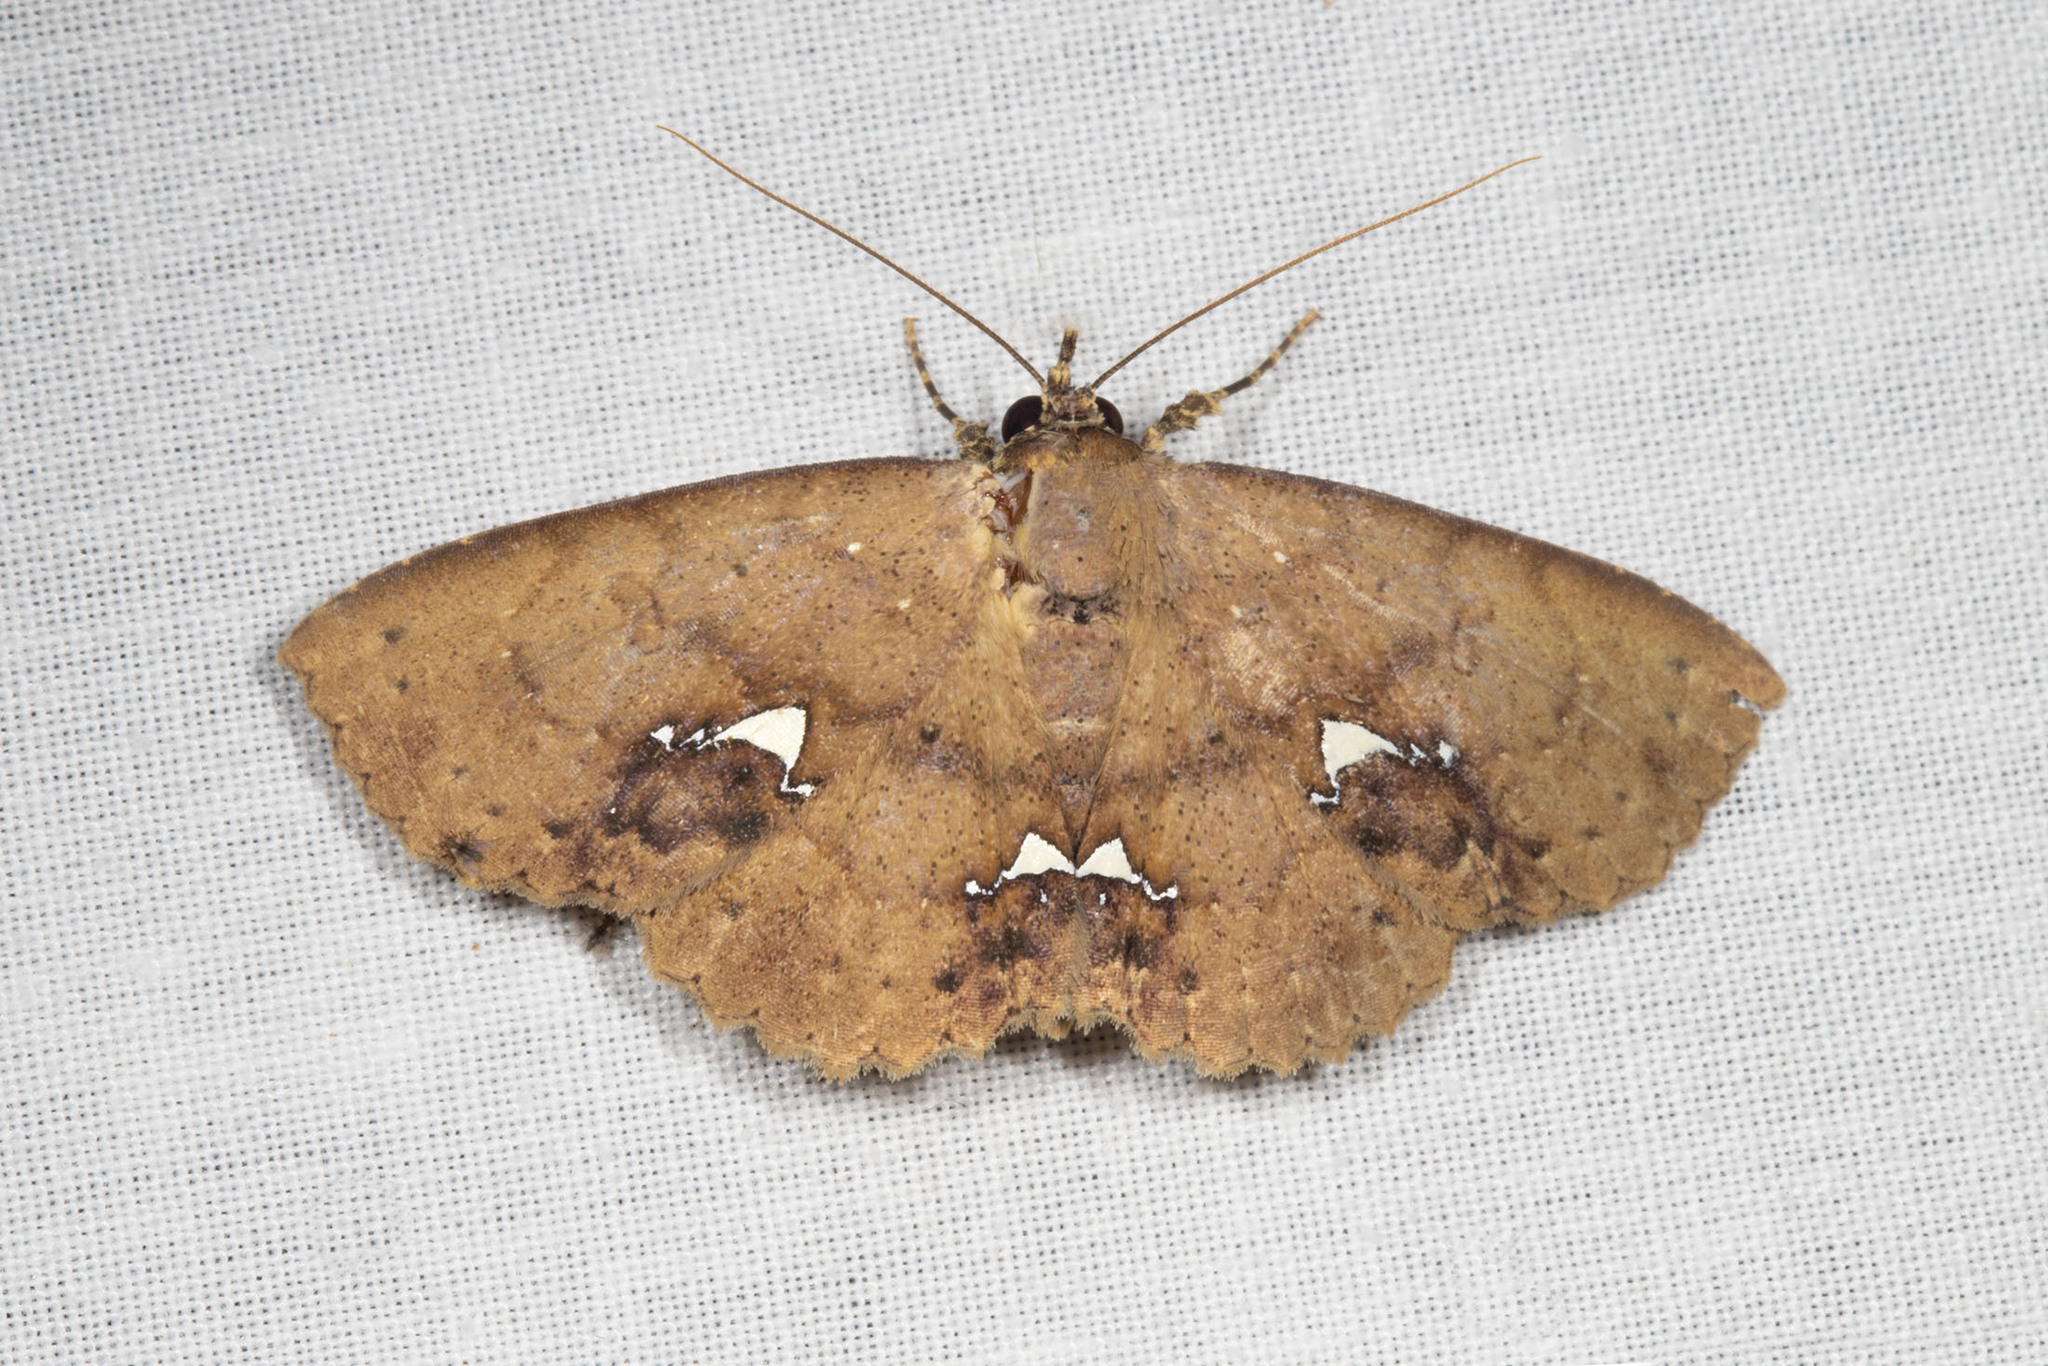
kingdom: Animalia
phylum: Arthropoda
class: Insecta
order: Lepidoptera
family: Erebidae
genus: Erebostrota
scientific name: Erebostrota calais
